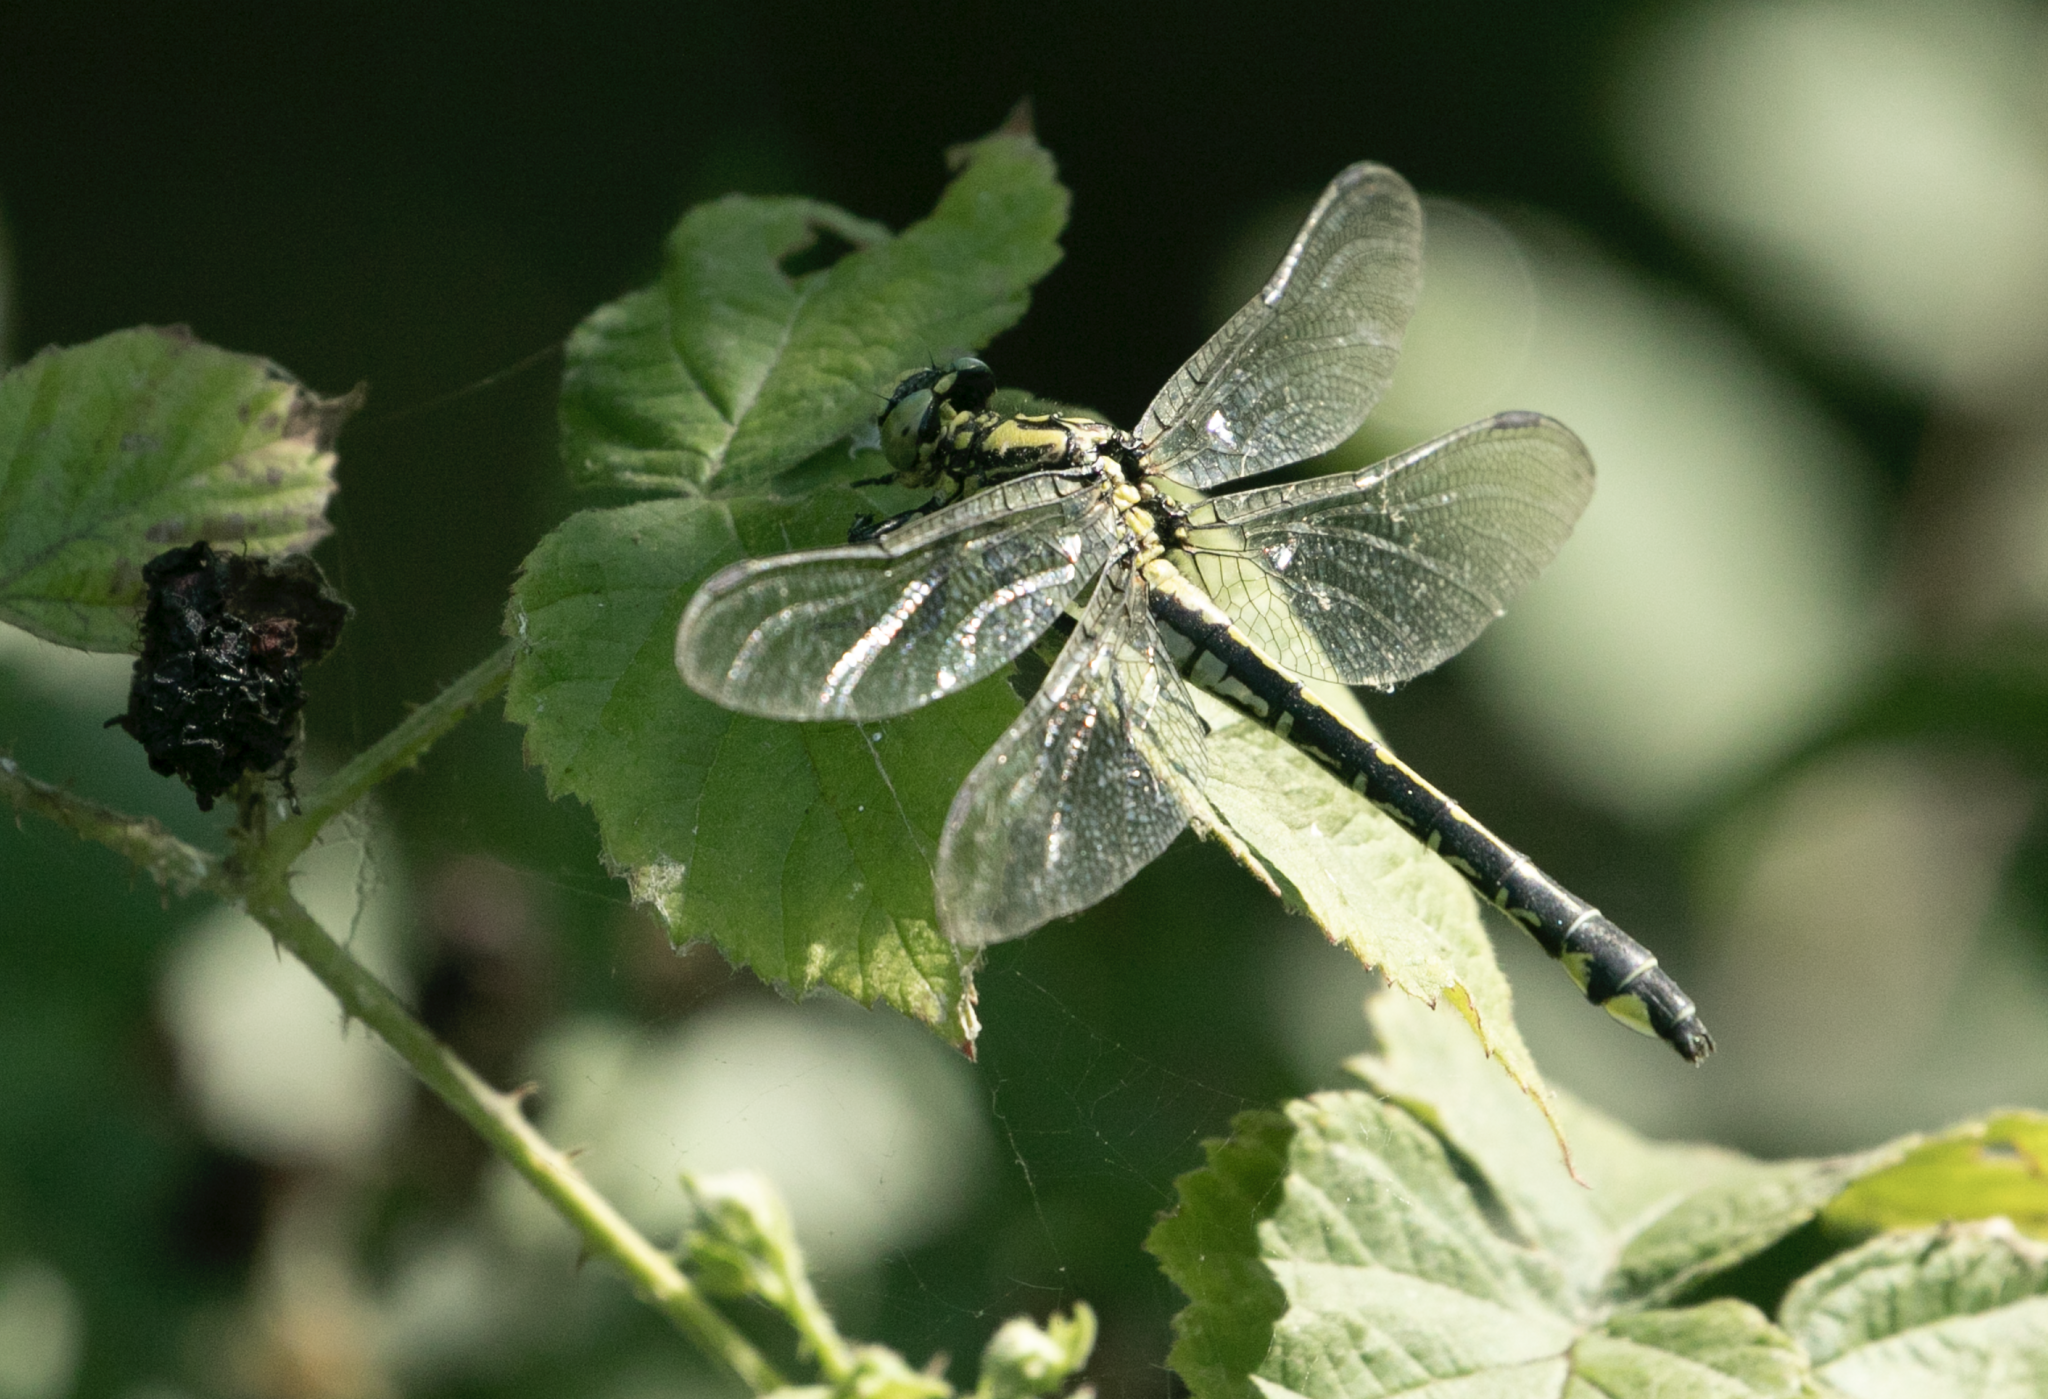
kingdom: Animalia
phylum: Arthropoda
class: Insecta
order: Odonata
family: Gomphidae
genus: Gomphus
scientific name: Gomphus vulgatissimus
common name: Club-tailed dragonfly
